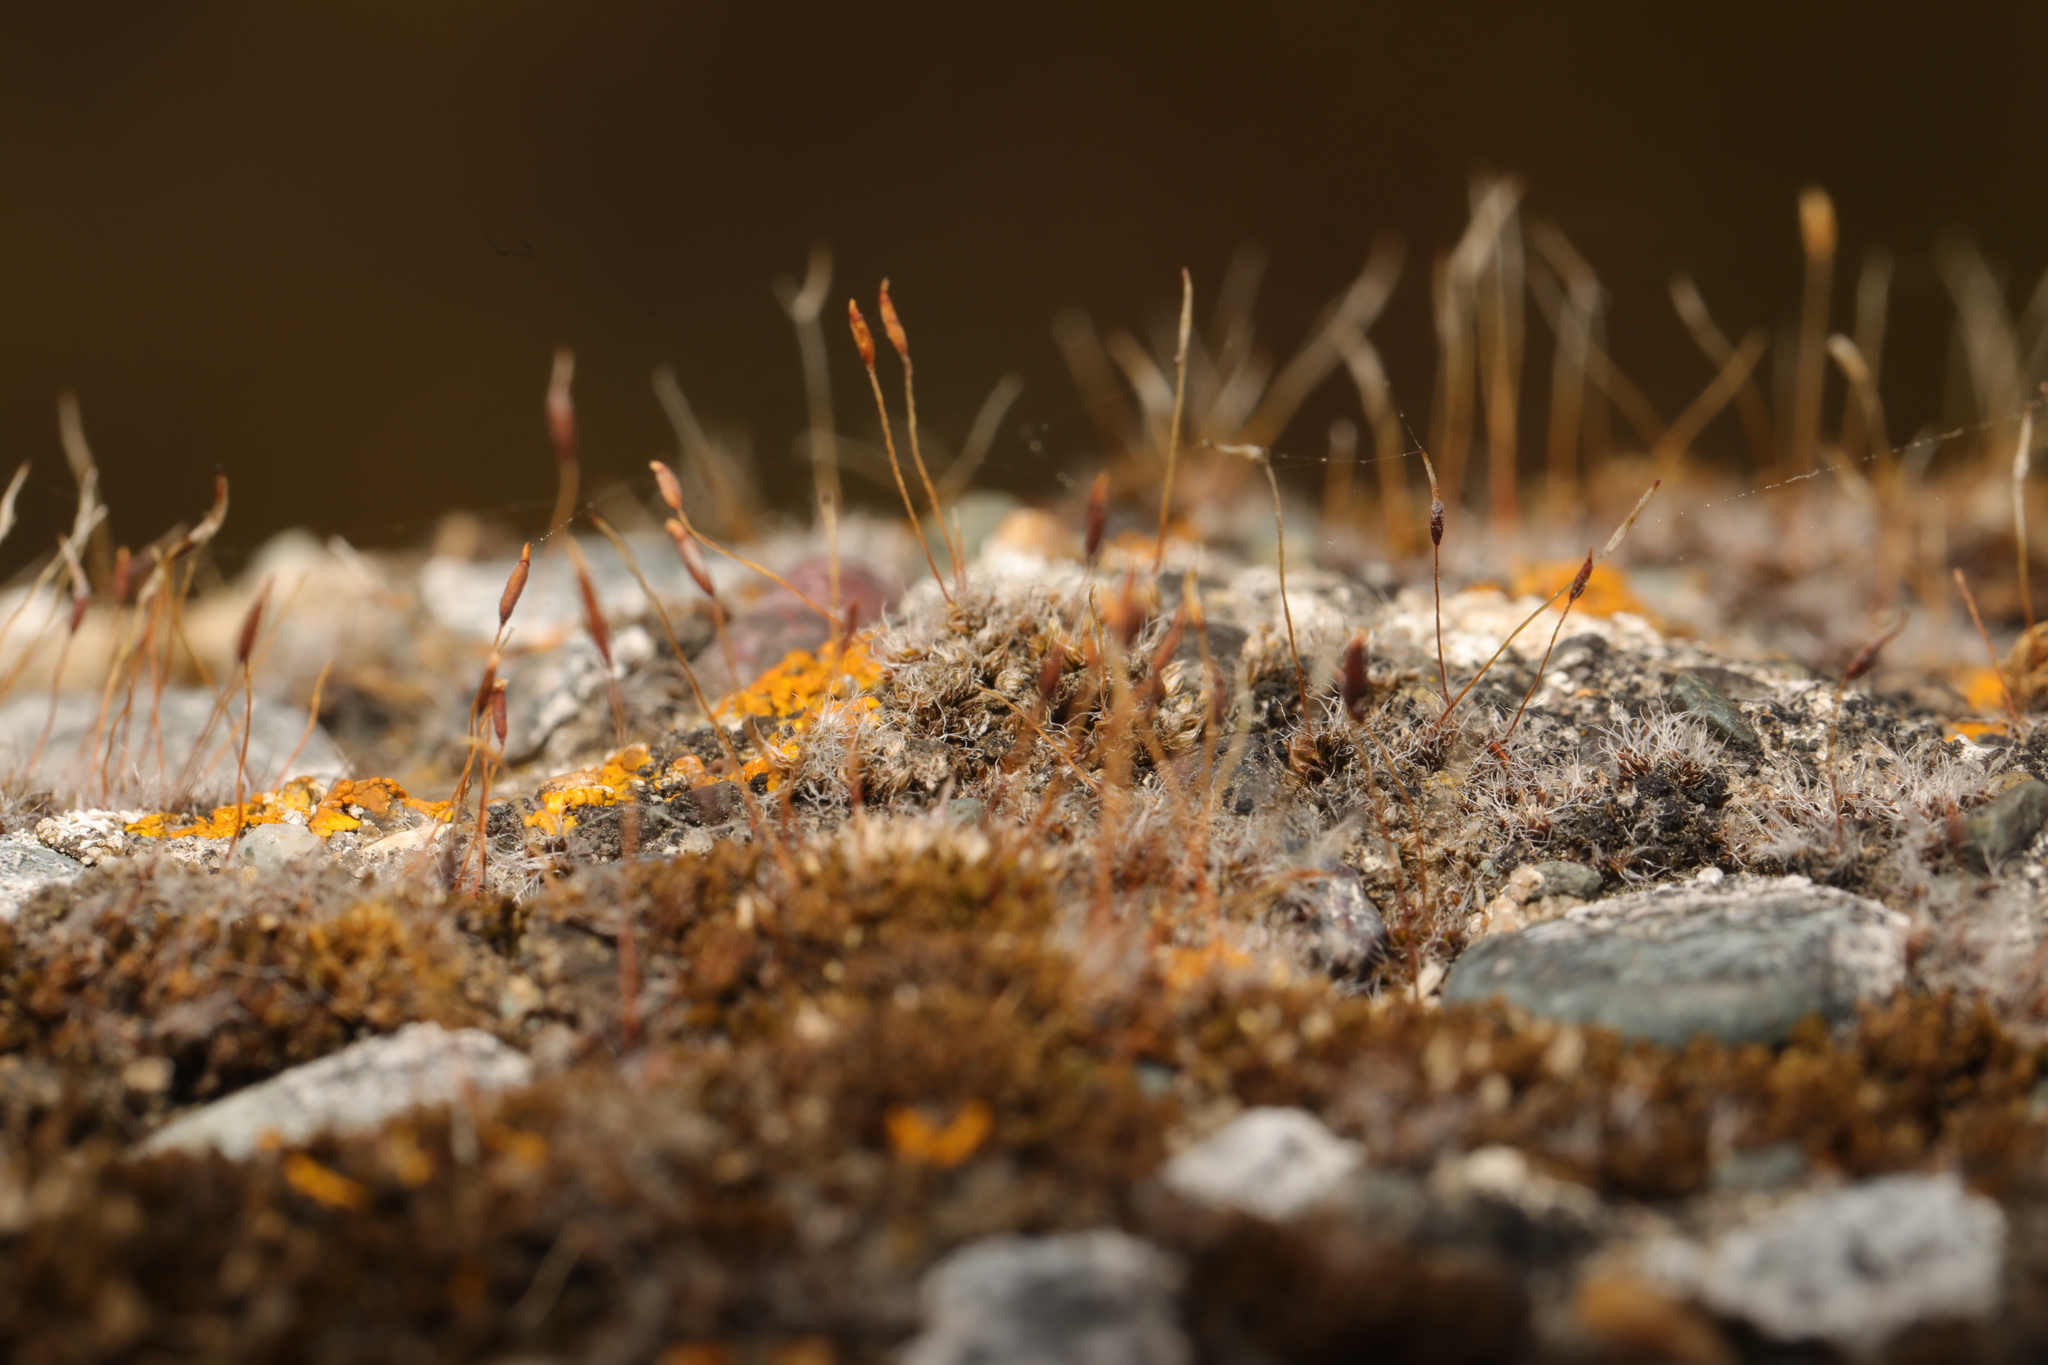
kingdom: Plantae
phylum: Bryophyta
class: Bryopsida
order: Pottiales
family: Pottiaceae
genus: Tortula
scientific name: Tortula muralis
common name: Wall screw-moss
